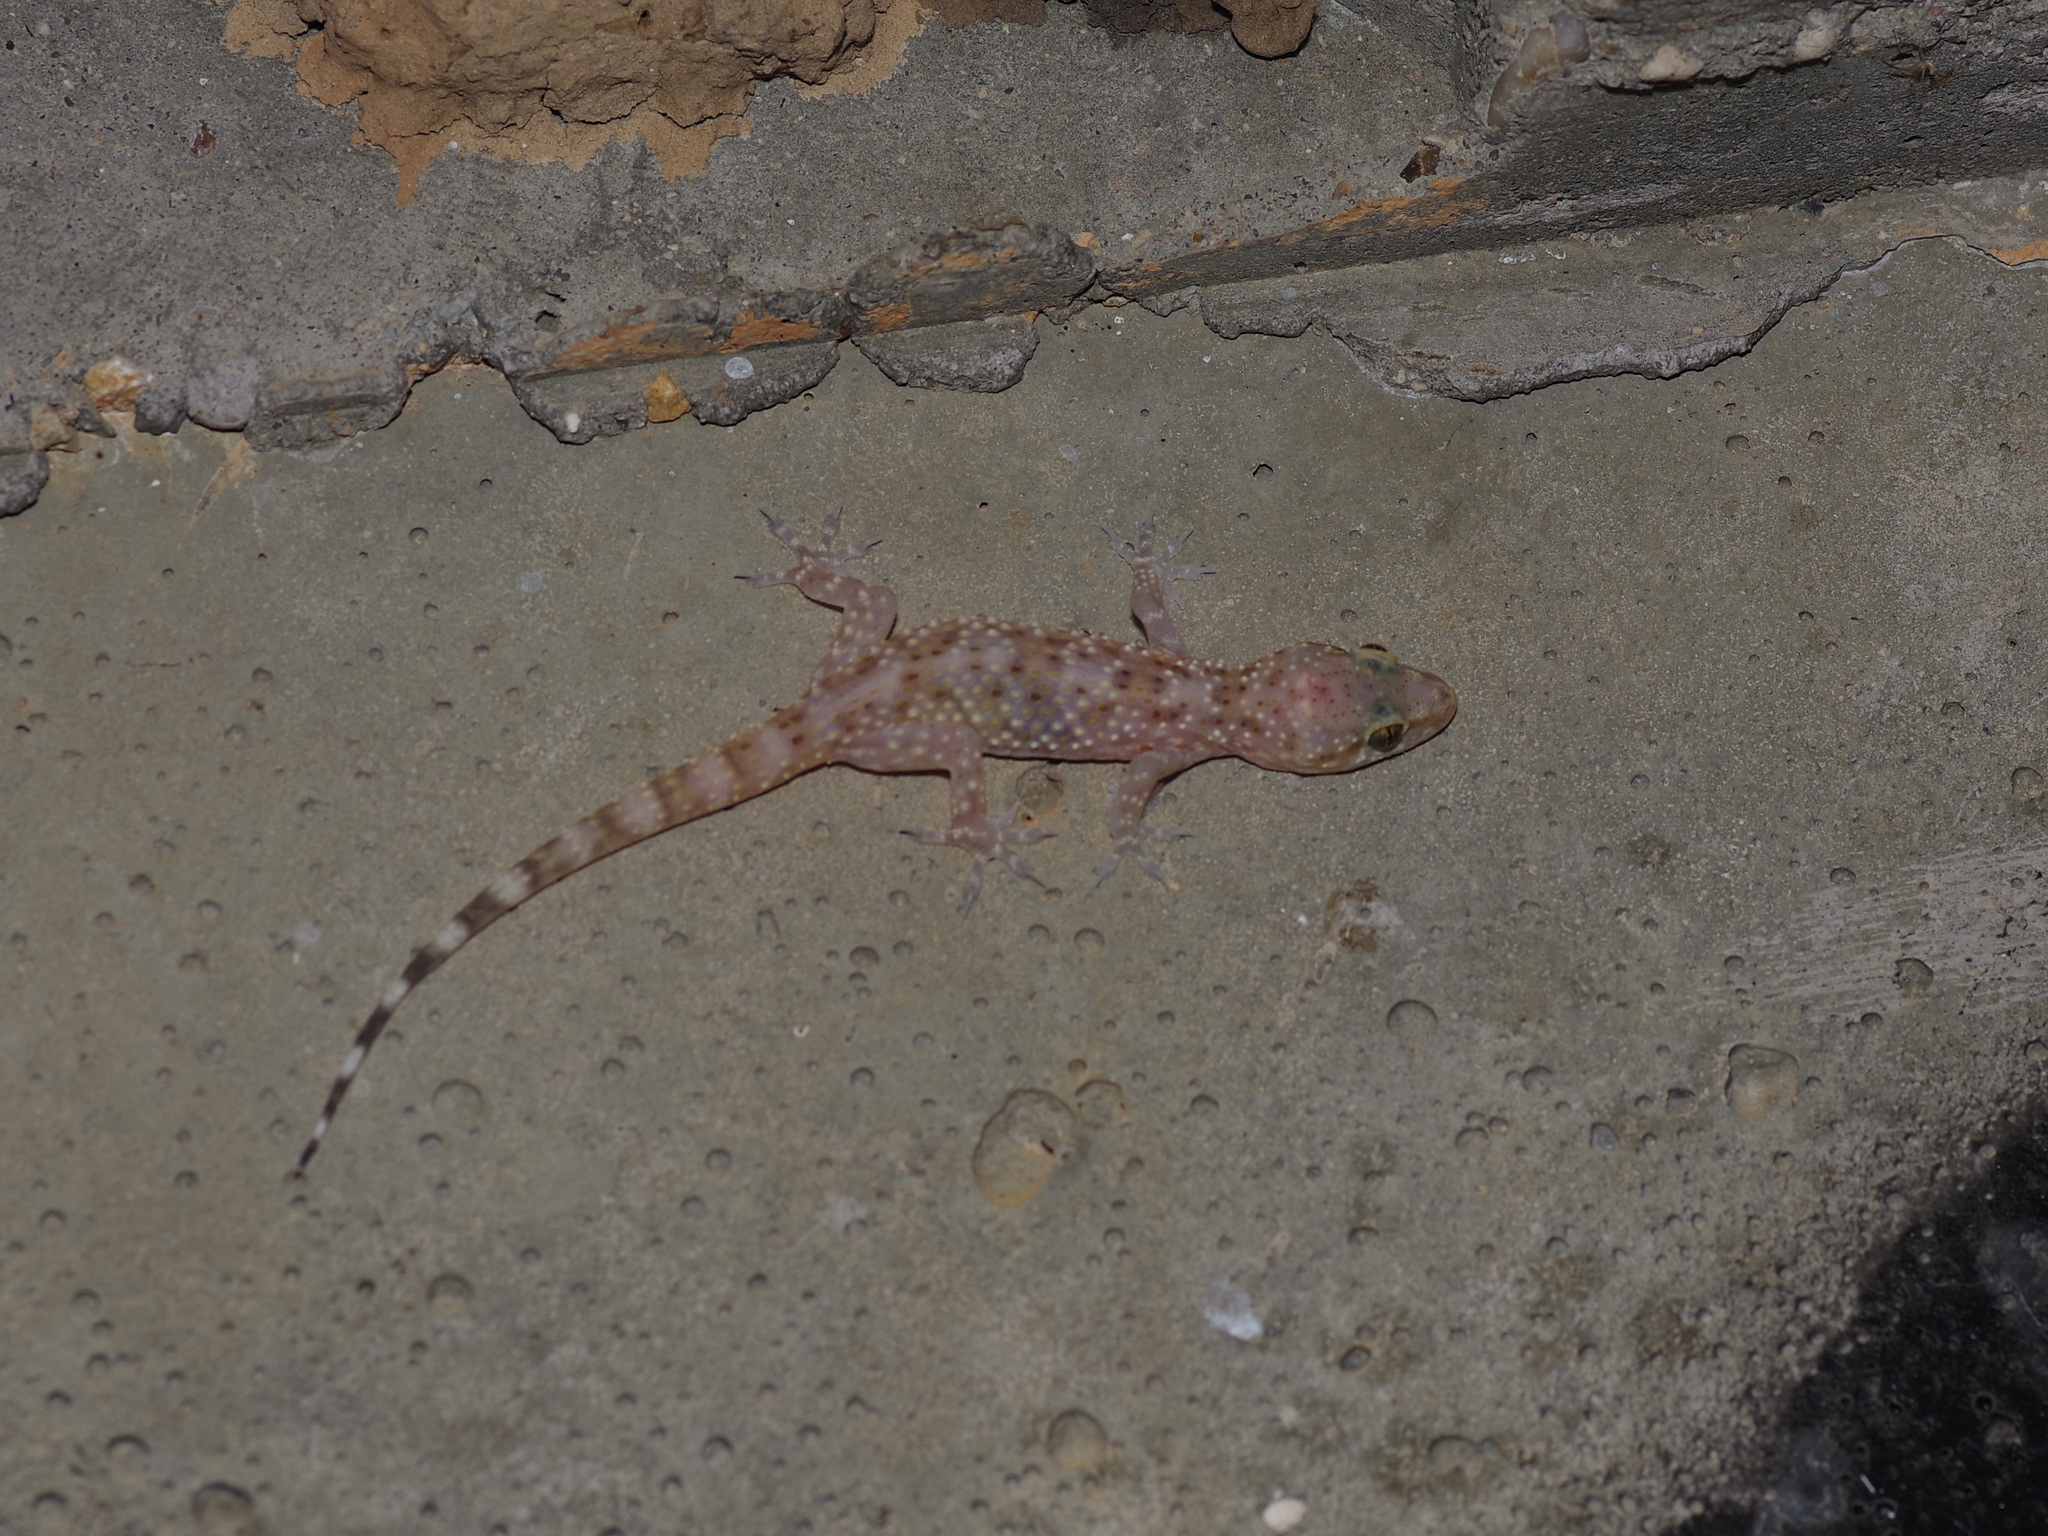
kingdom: Animalia
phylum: Chordata
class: Squamata
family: Gekkonidae
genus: Hemidactylus
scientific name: Hemidactylus turcicus
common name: Turkish gecko
